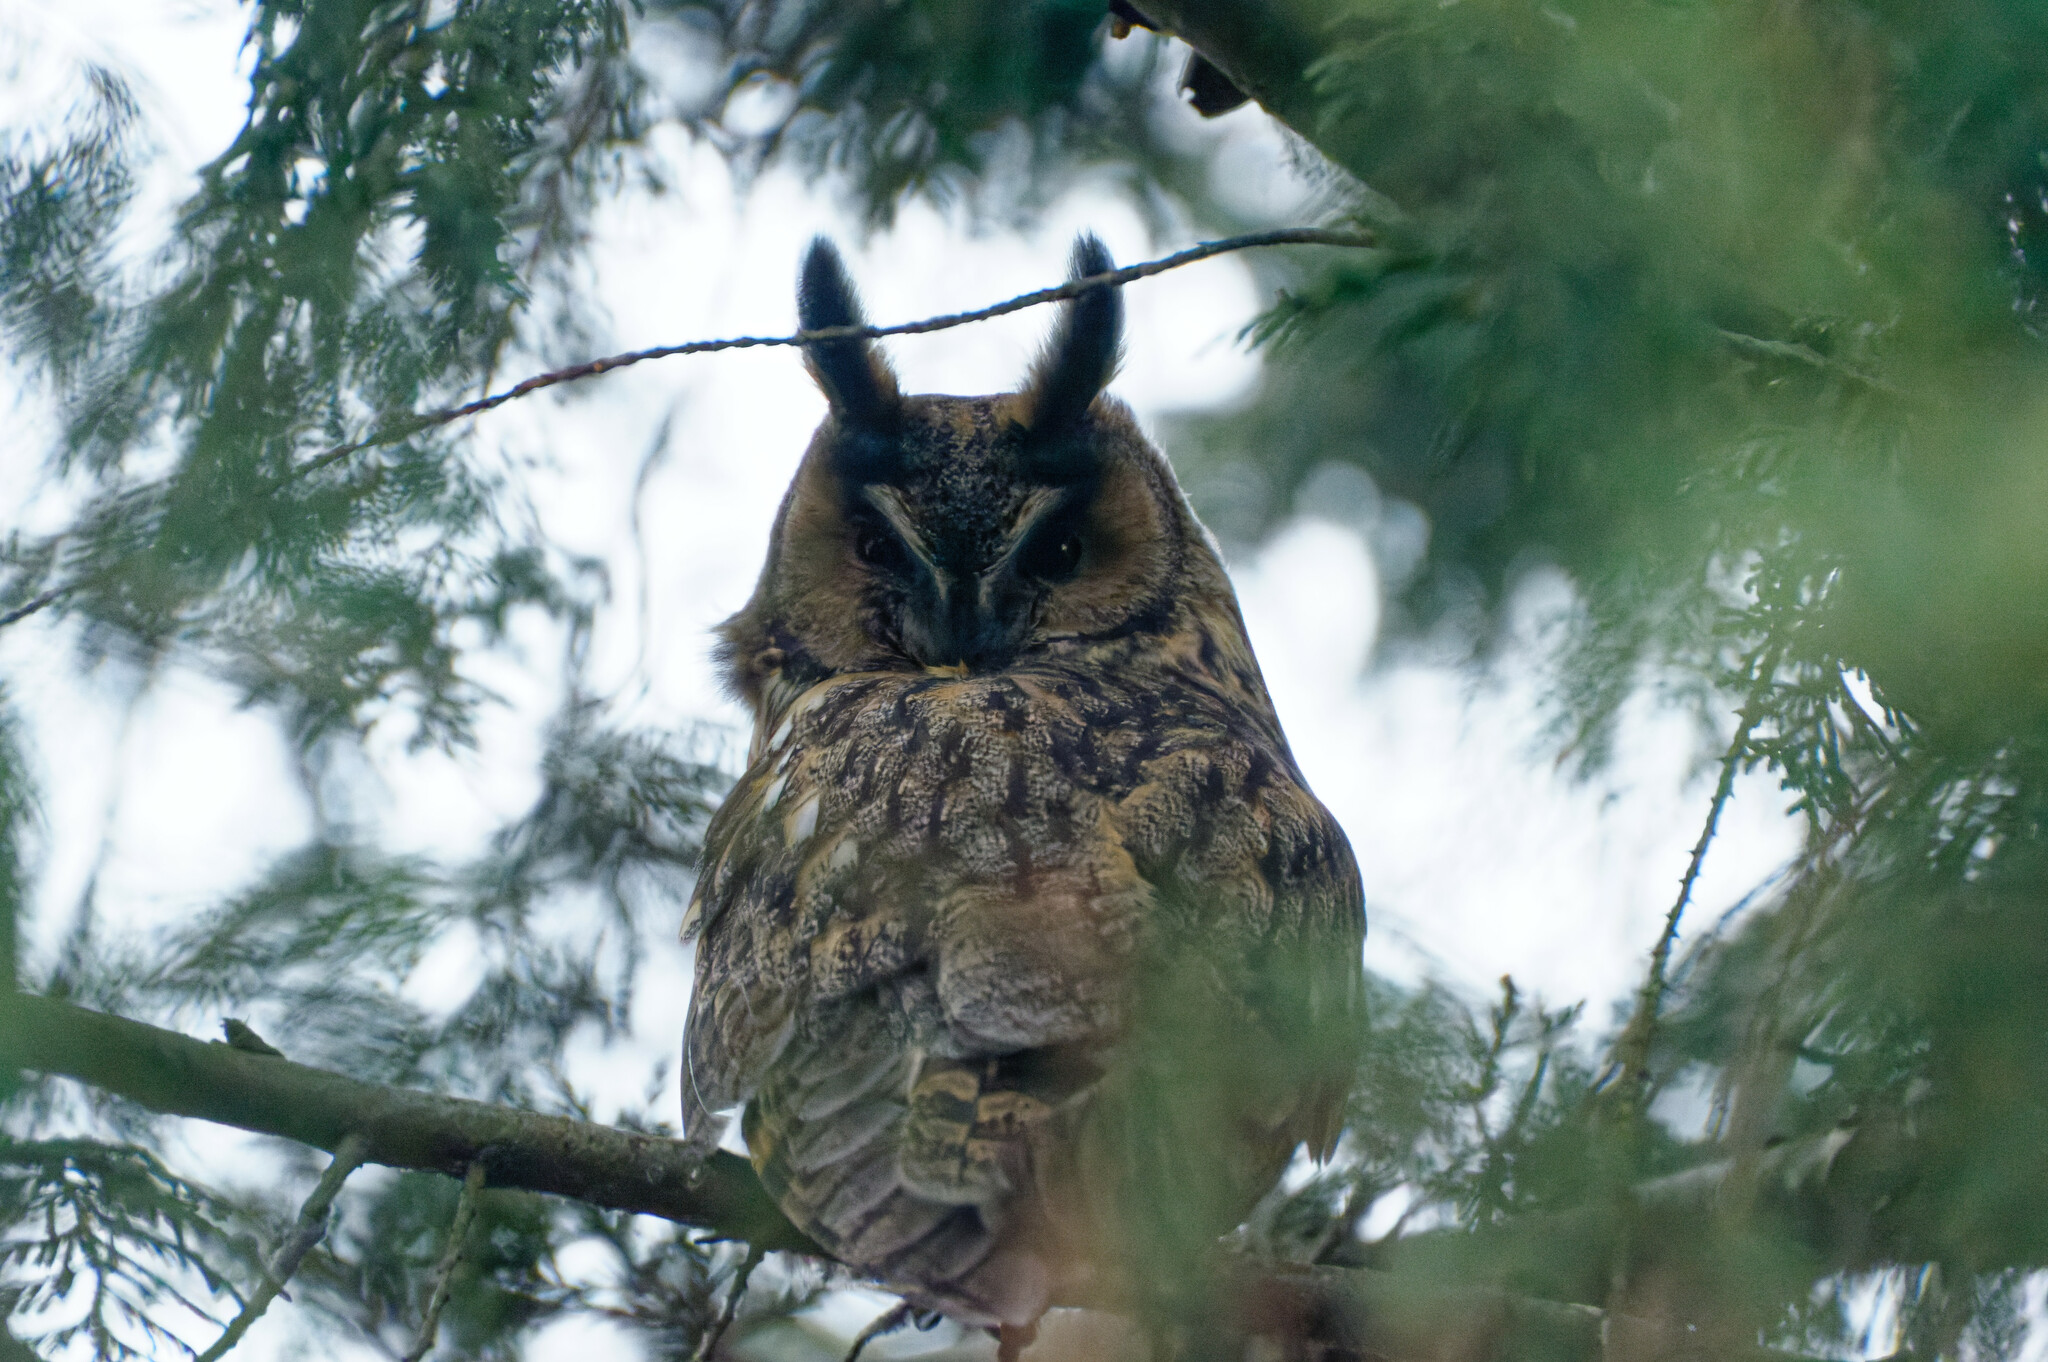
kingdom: Animalia
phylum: Chordata
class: Aves
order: Strigiformes
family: Strigidae
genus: Asio
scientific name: Asio otus
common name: Long-eared owl
